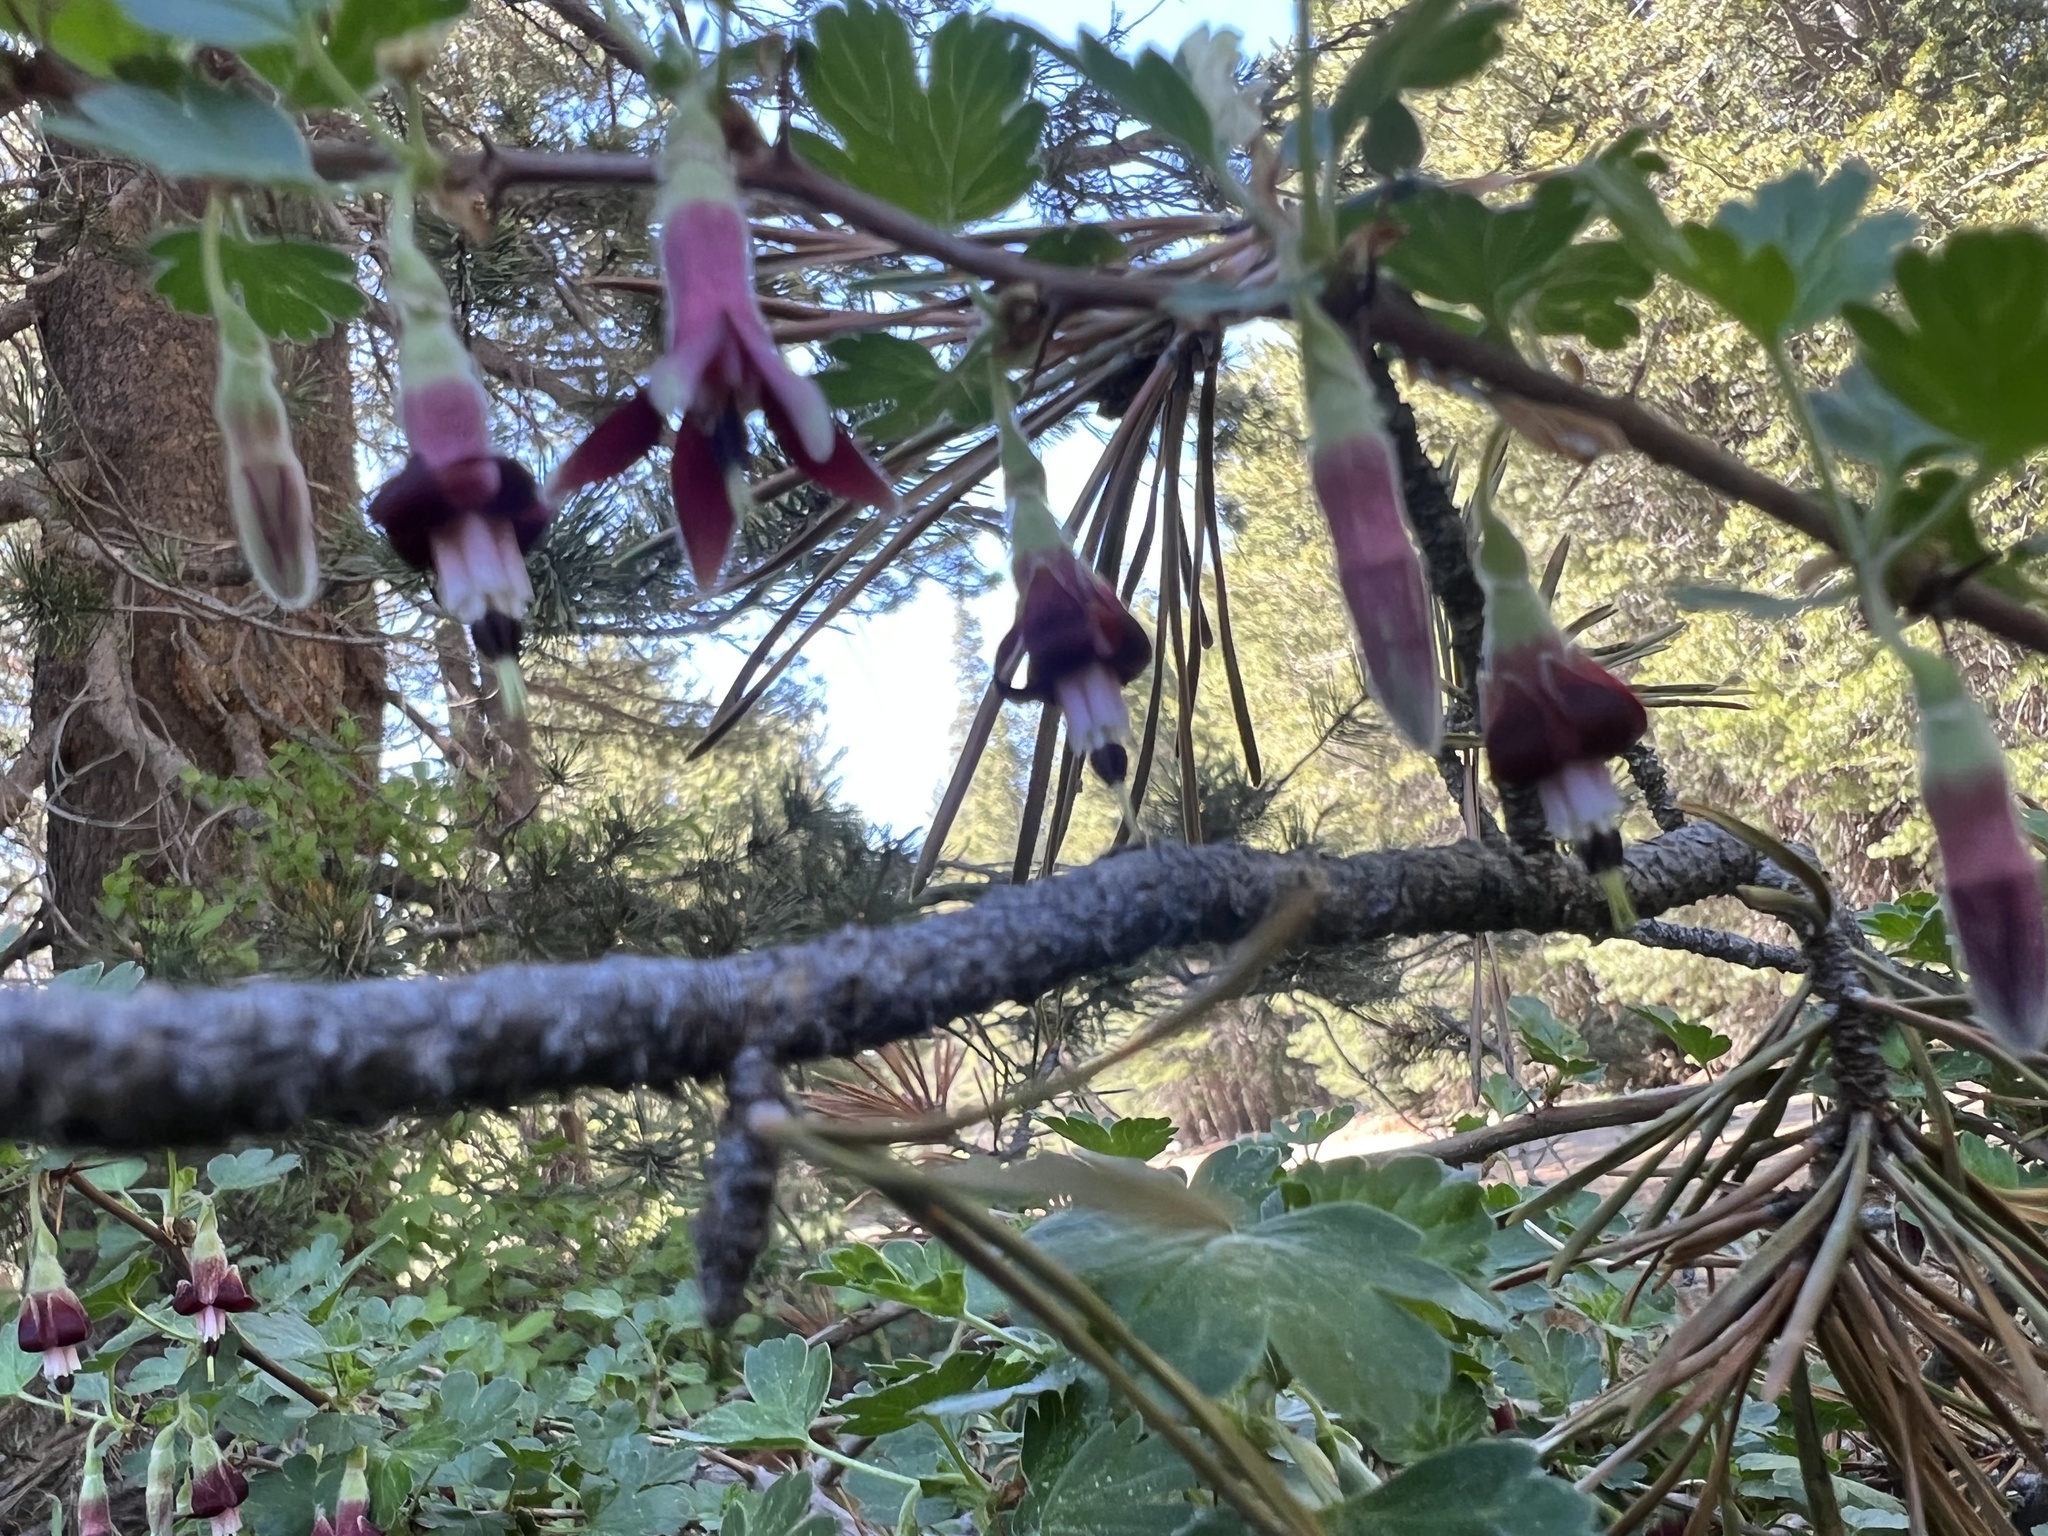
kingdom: Plantae
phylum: Tracheophyta
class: Magnoliopsida
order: Saxifragales
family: Grossulariaceae
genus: Ribes
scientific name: Ribes roezlii
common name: Sierra gooseberry
